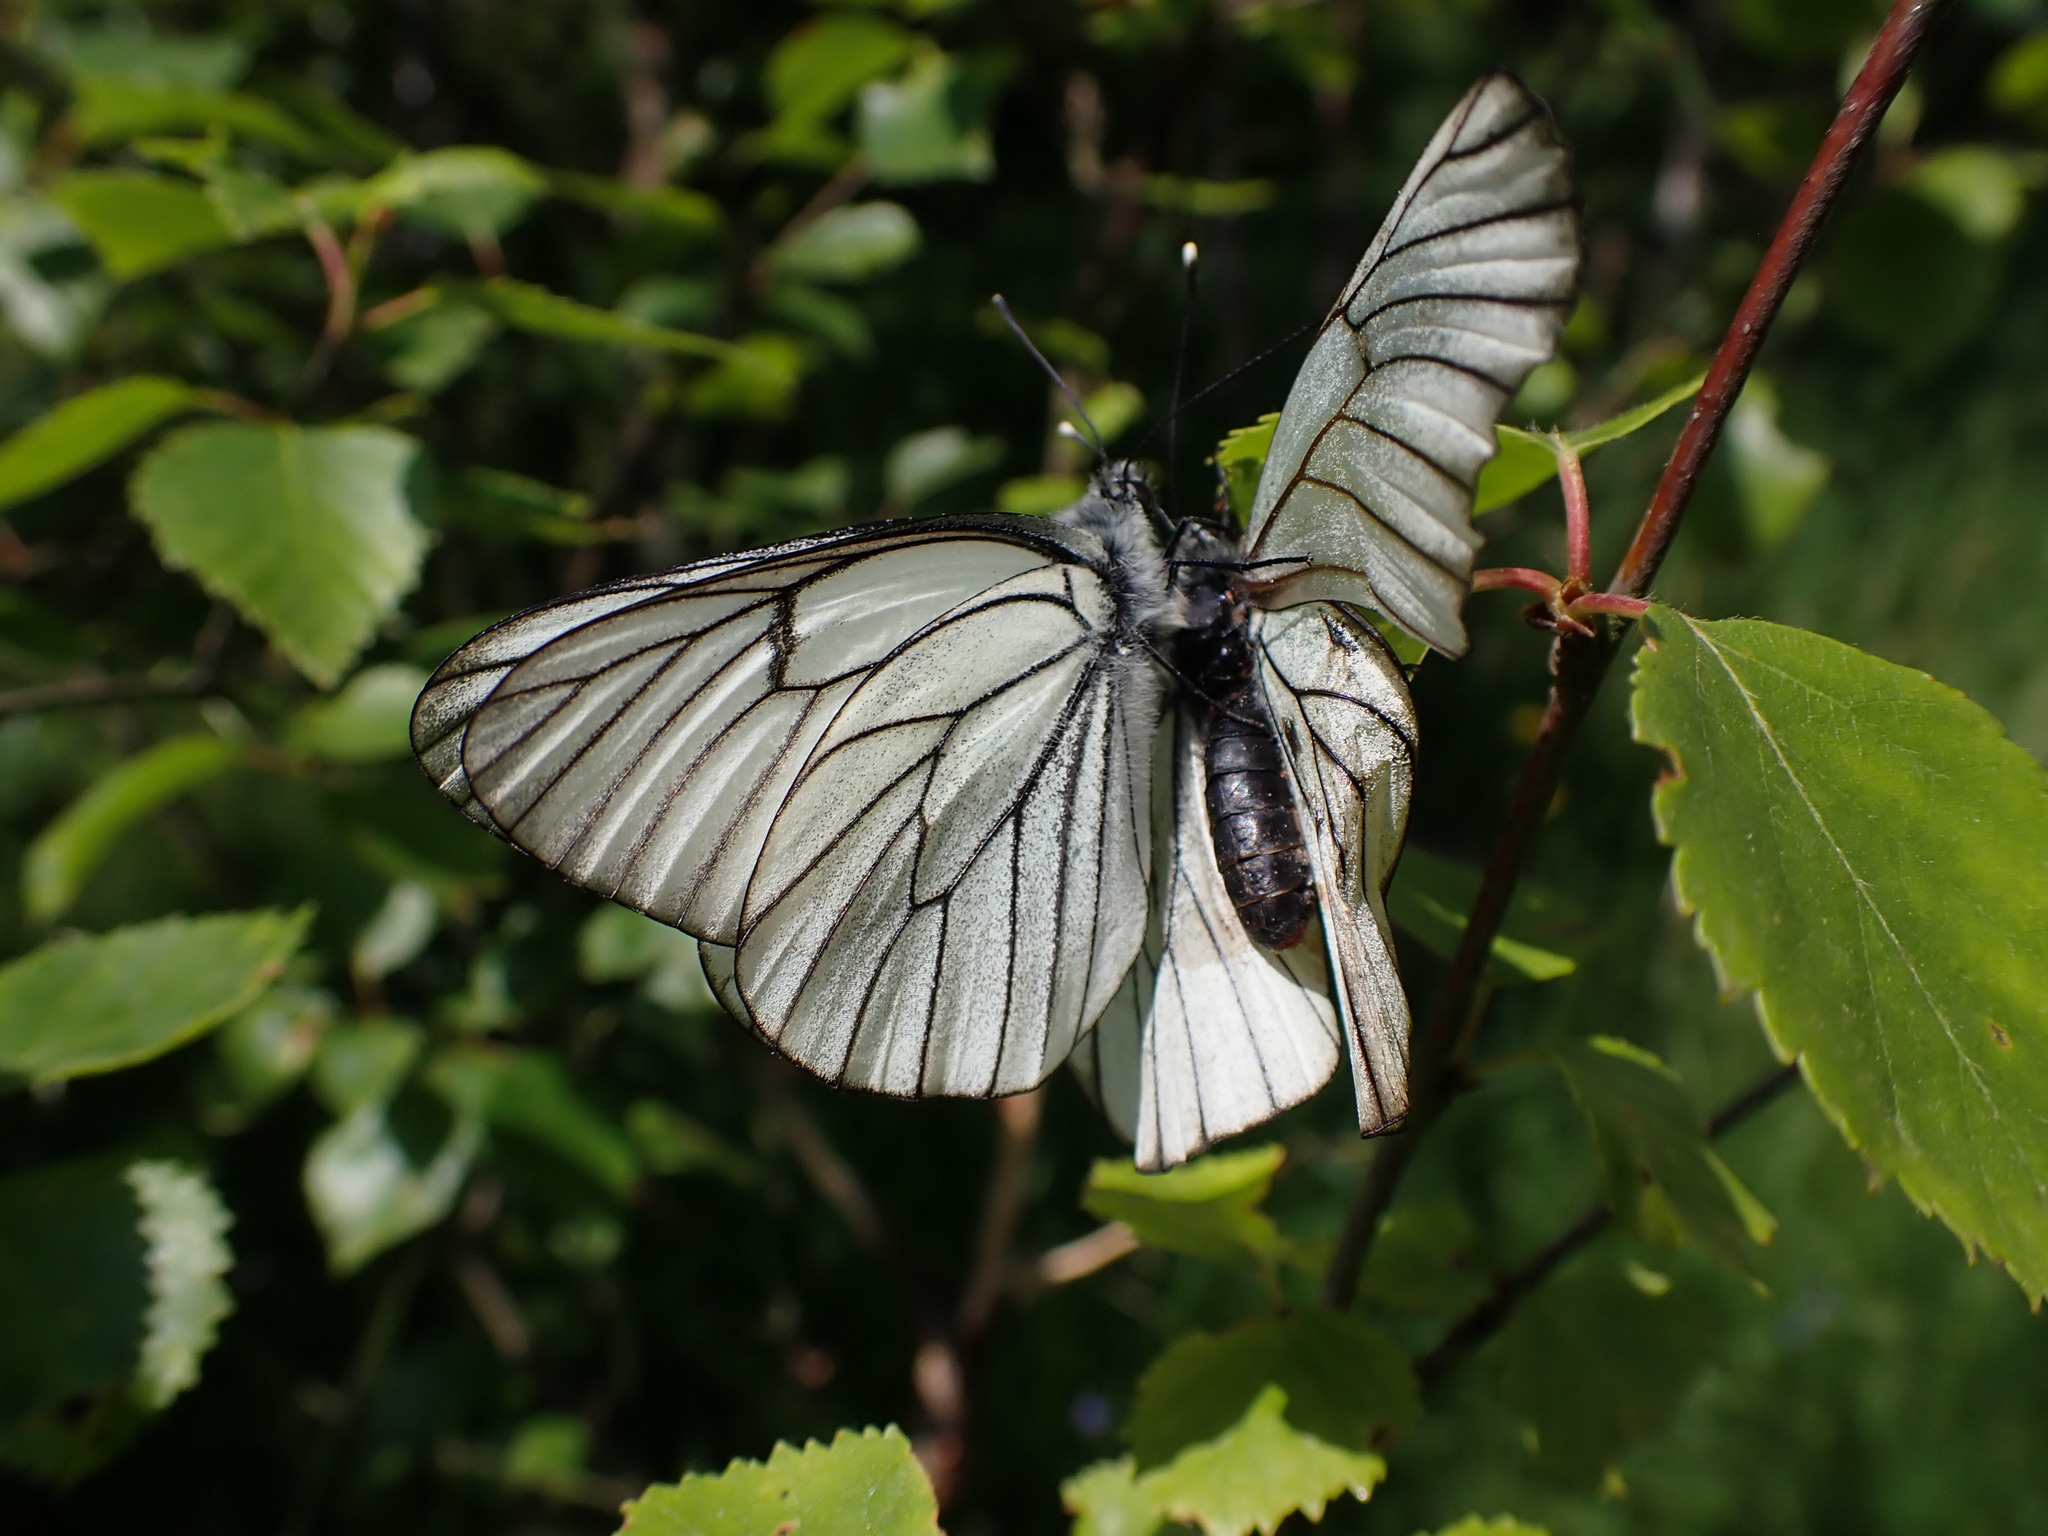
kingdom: Animalia
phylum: Arthropoda
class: Insecta
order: Lepidoptera
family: Pieridae
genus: Aporia
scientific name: Aporia crataegi
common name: Black-veined white
